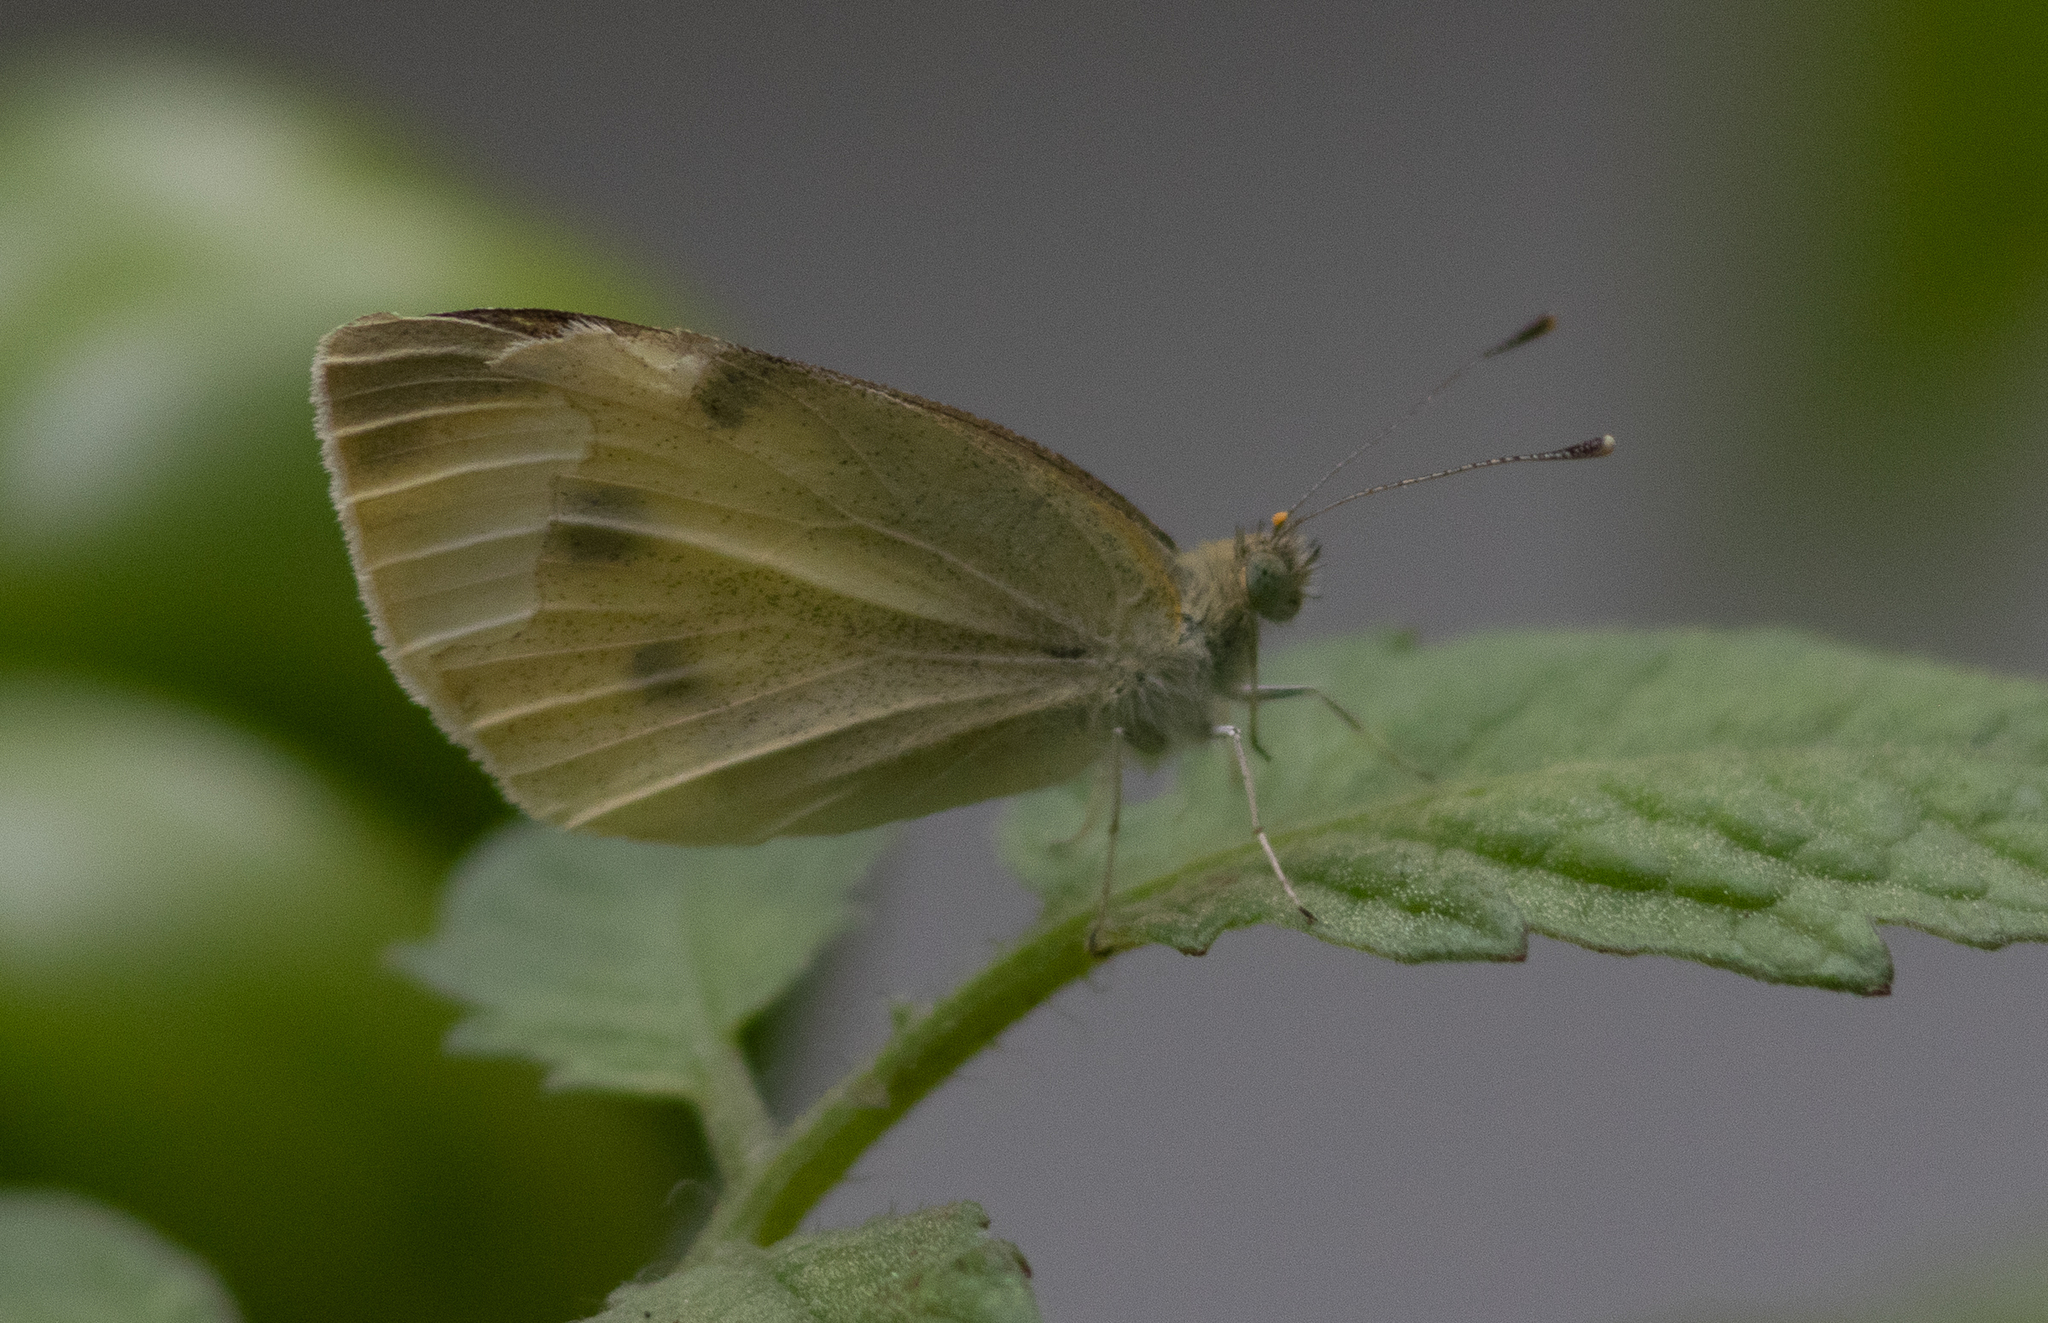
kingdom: Animalia
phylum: Arthropoda
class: Insecta
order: Lepidoptera
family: Pieridae
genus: Pieris
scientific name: Pieris rapae
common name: Small white
